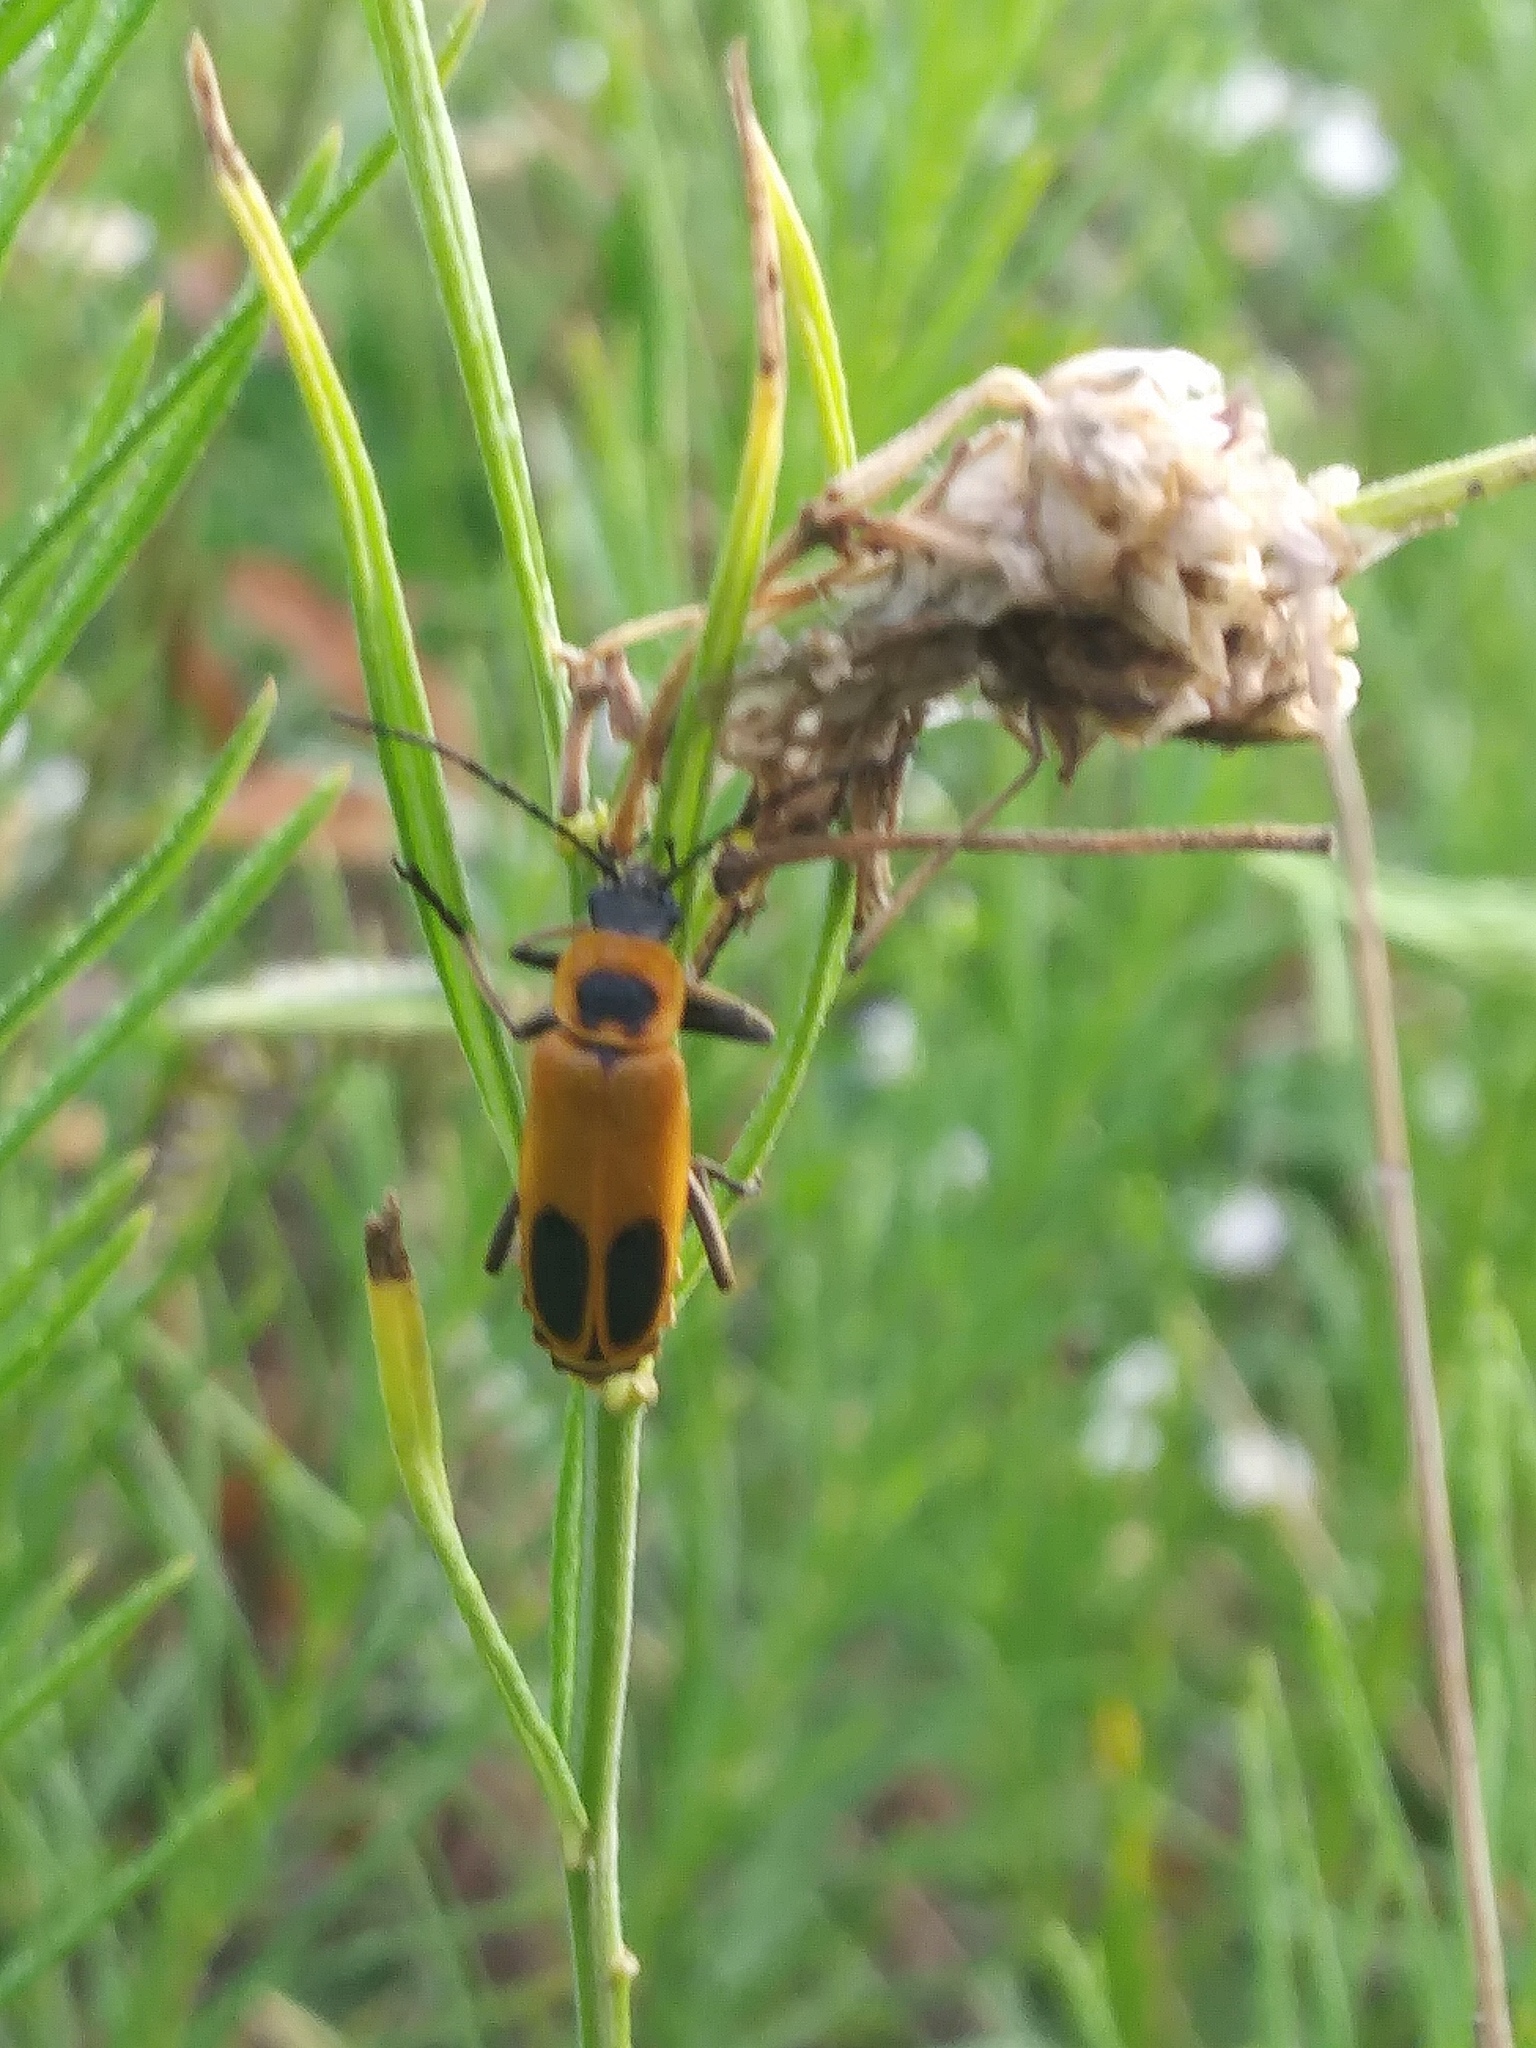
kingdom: Animalia
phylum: Arthropoda
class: Insecta
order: Coleoptera
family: Cantharidae
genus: Chauliognathus
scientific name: Chauliognathus pensylvanicus
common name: Goldenrod soldier beetle
